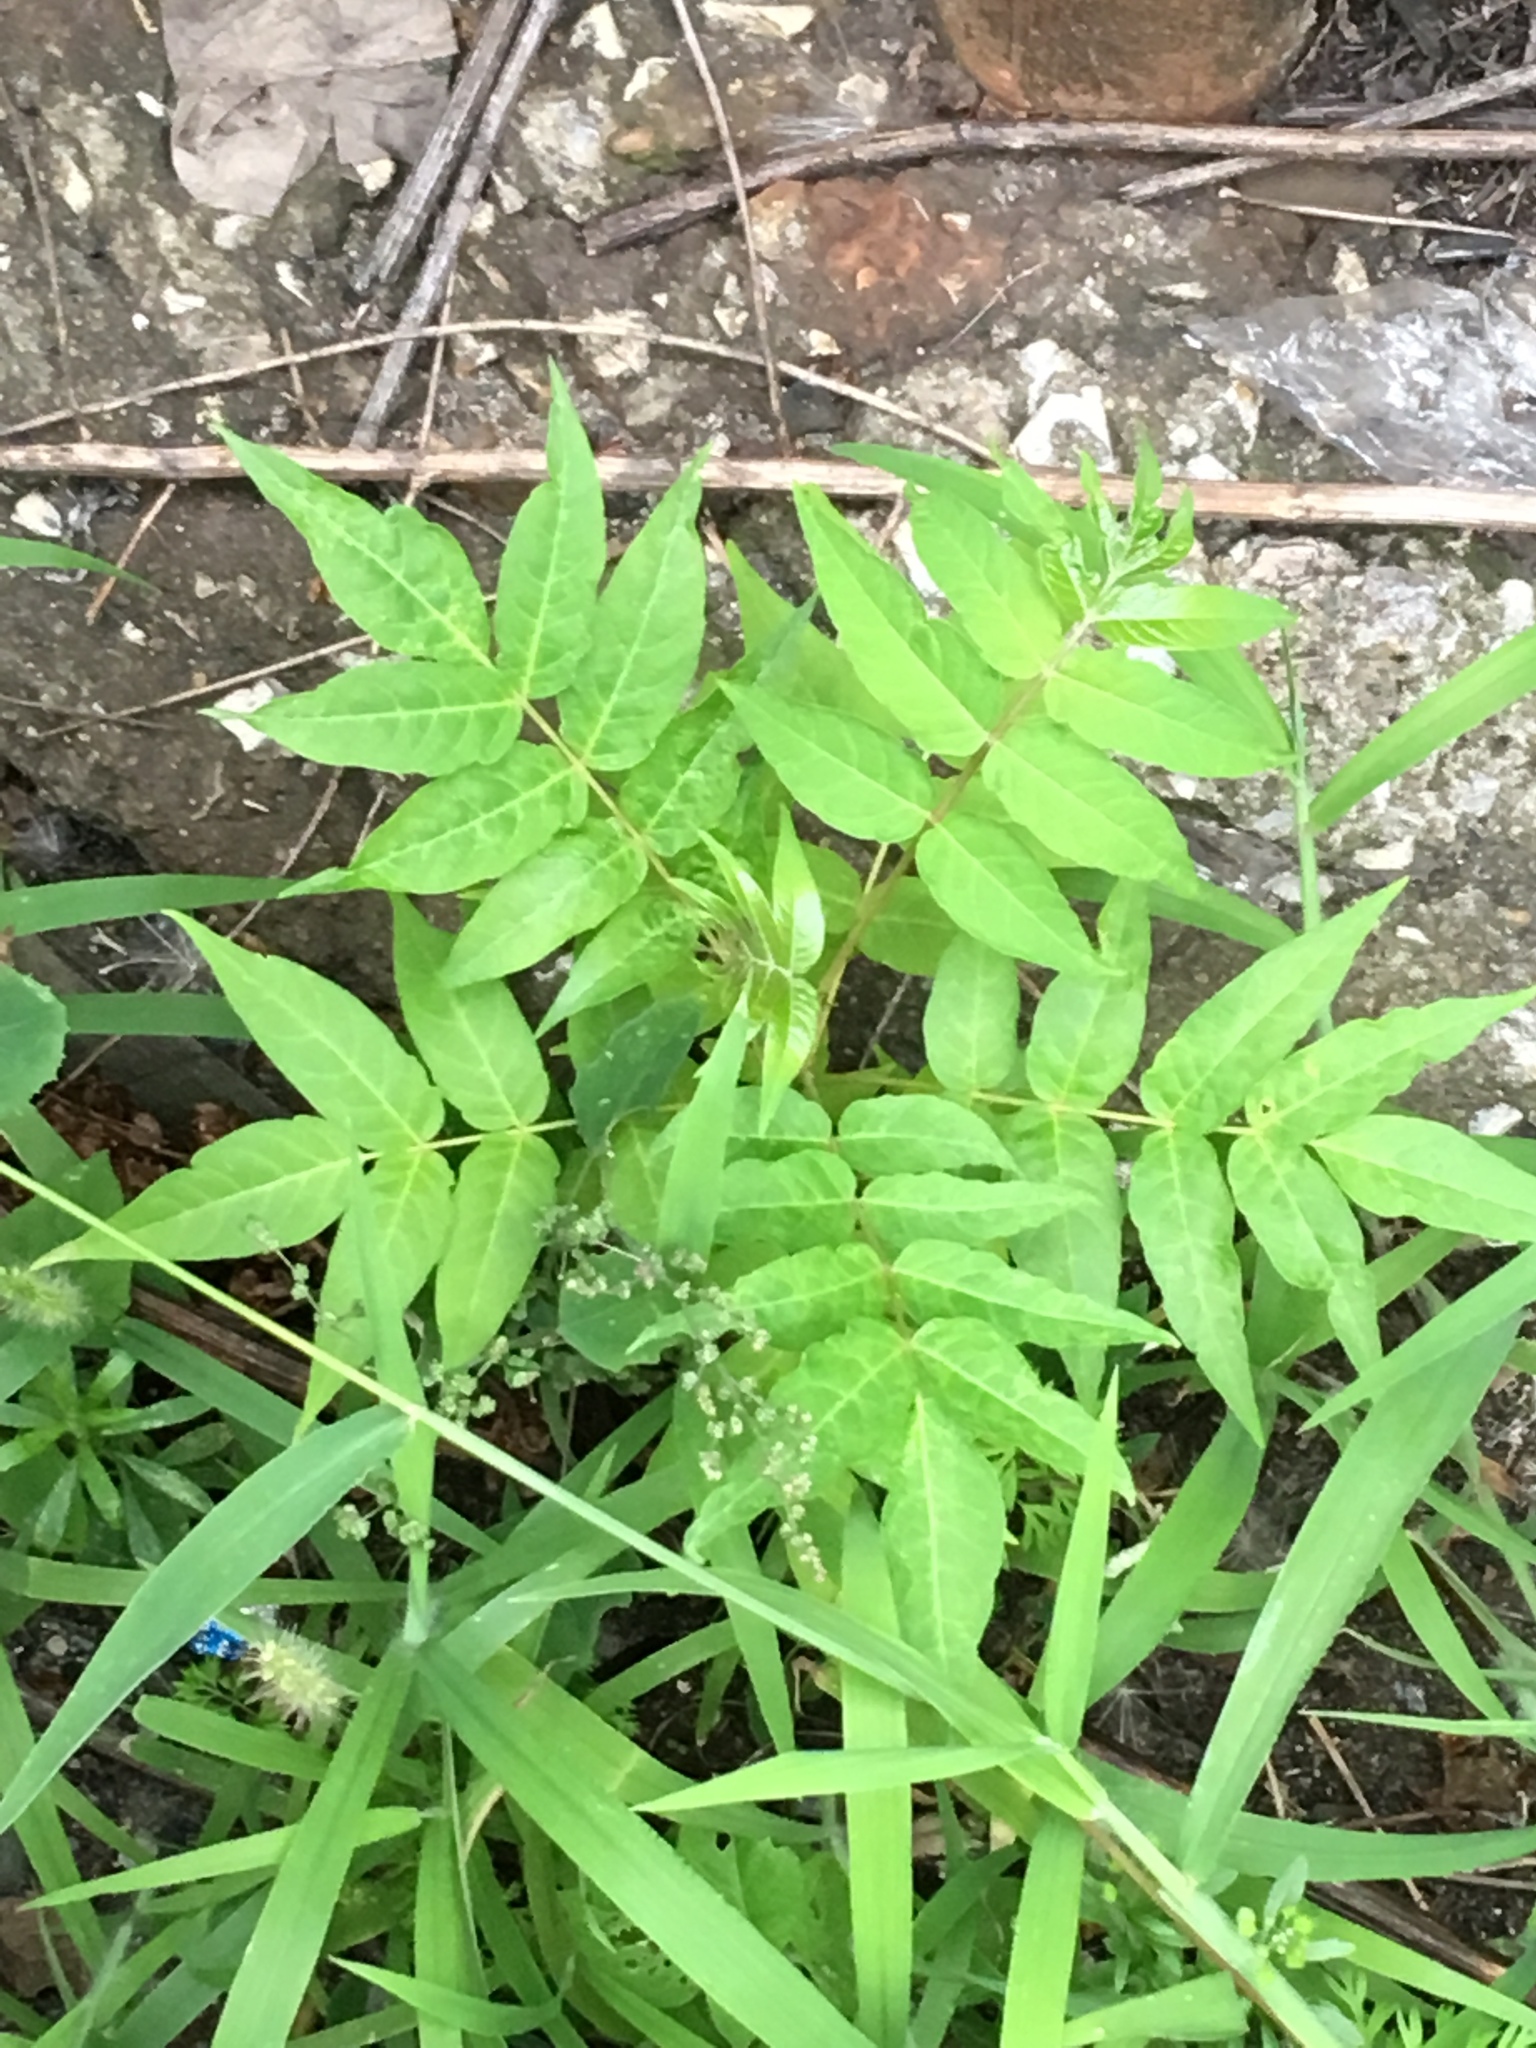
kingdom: Plantae
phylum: Tracheophyta
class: Magnoliopsida
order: Sapindales
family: Simaroubaceae
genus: Ailanthus
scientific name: Ailanthus altissima
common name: Tree-of-heaven
